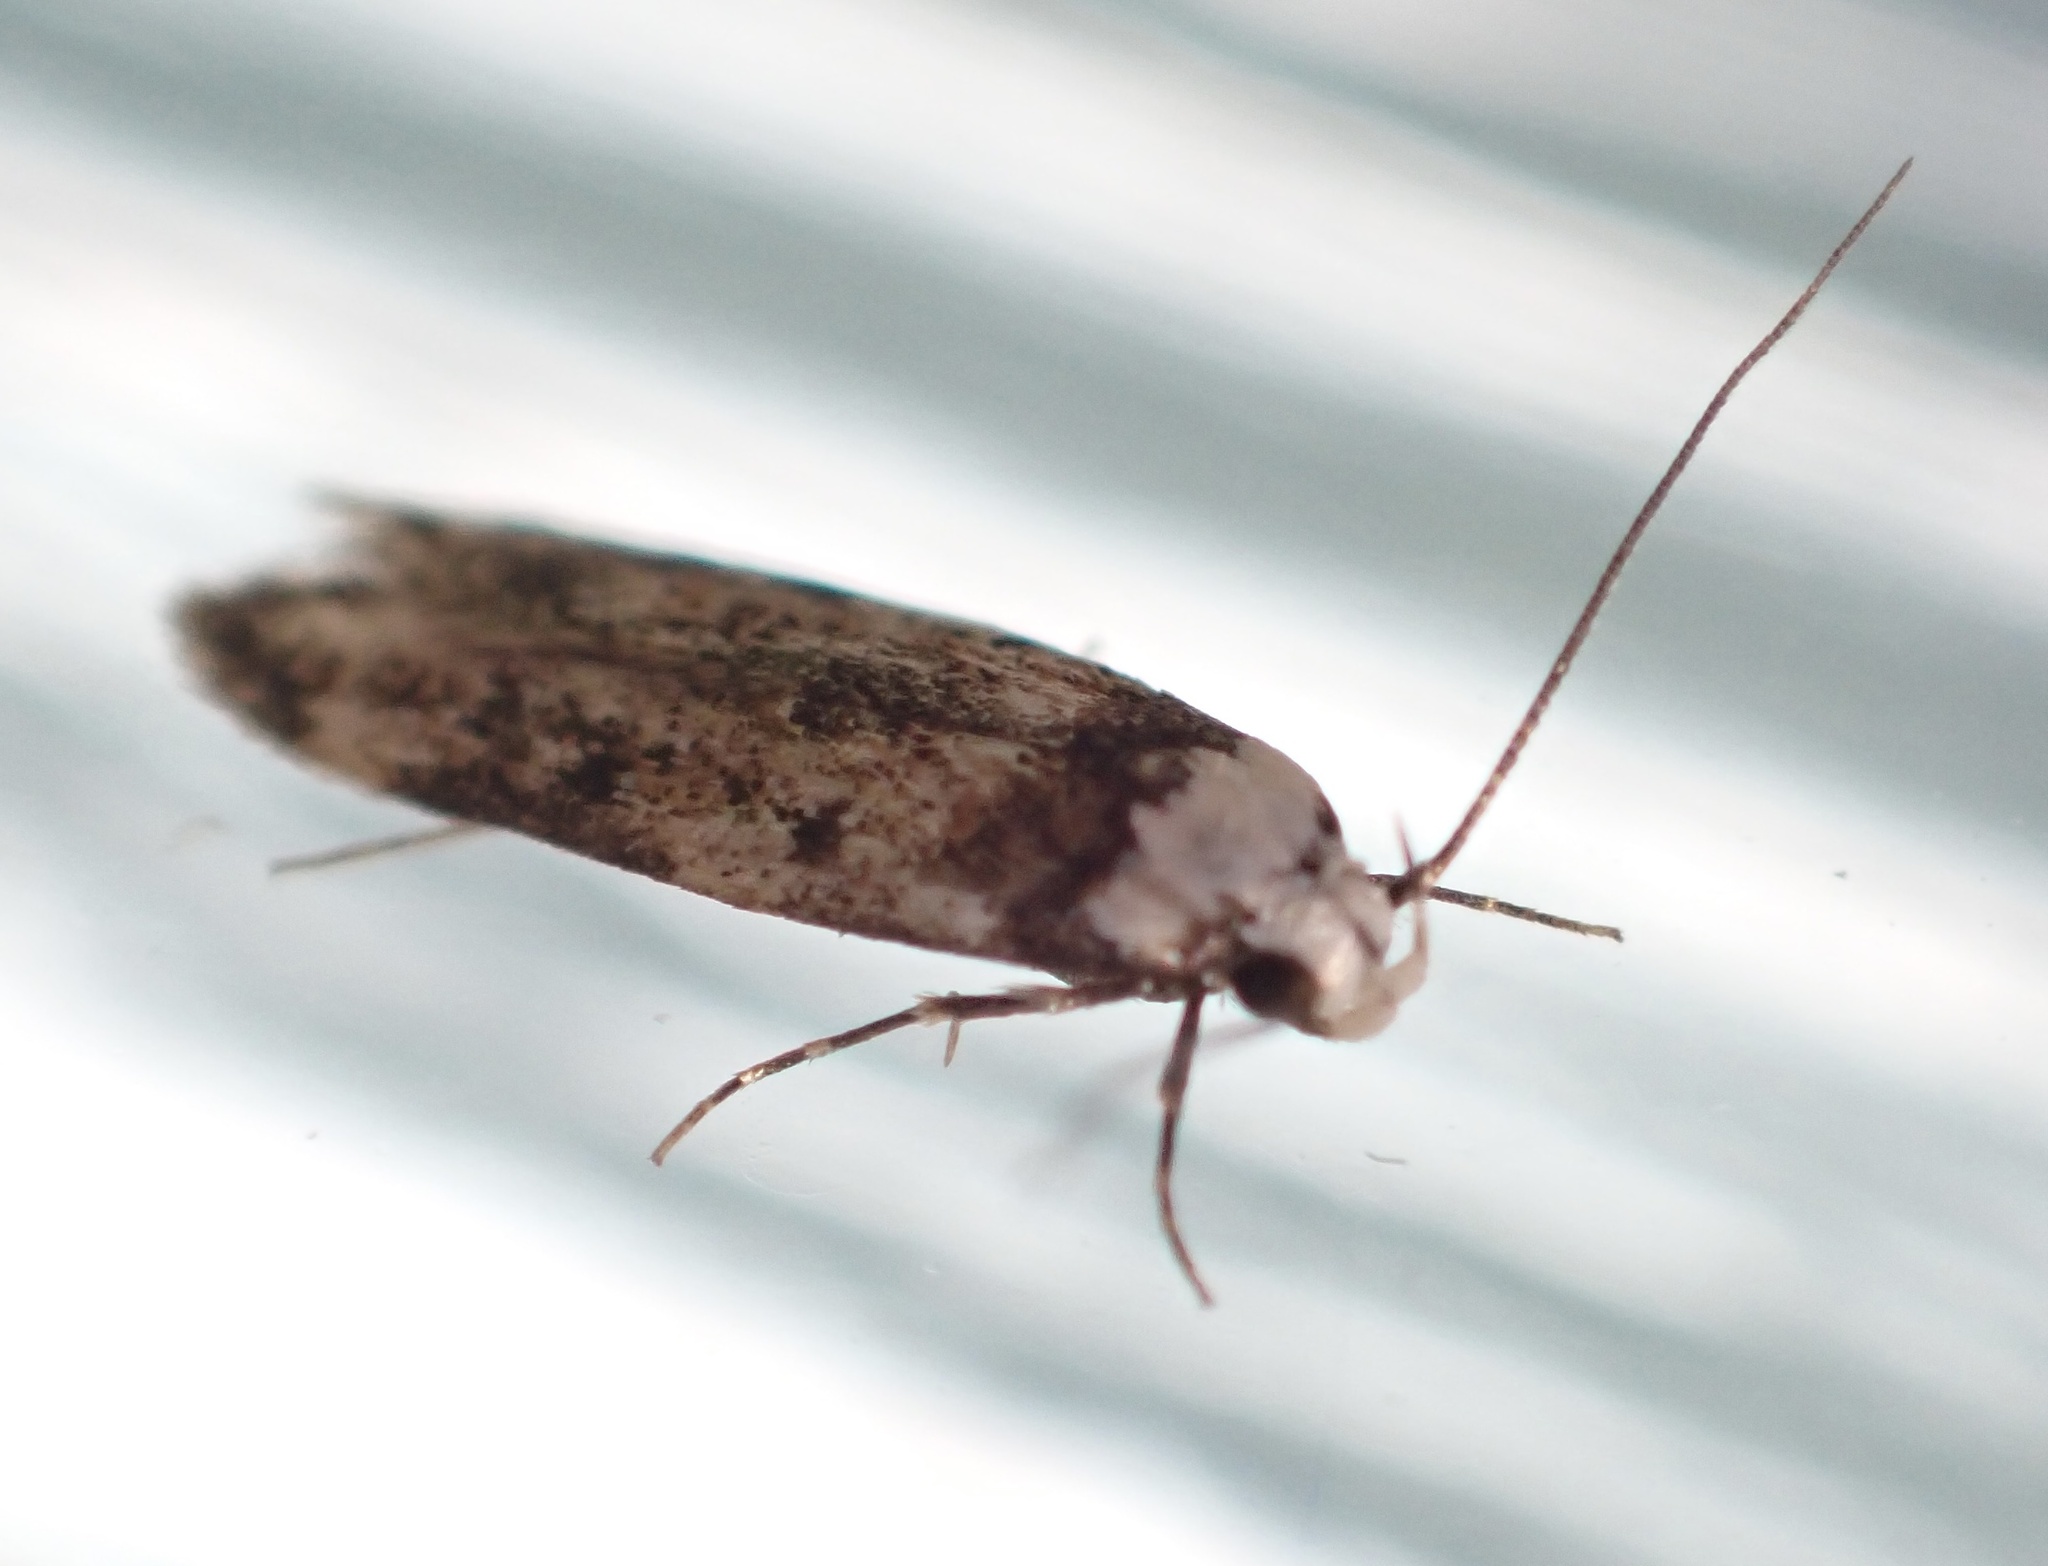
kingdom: Animalia
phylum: Arthropoda
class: Insecta
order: Lepidoptera
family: Oecophoridae
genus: Endrosis
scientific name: Endrosis sarcitrella
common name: White-shouldered house moth
